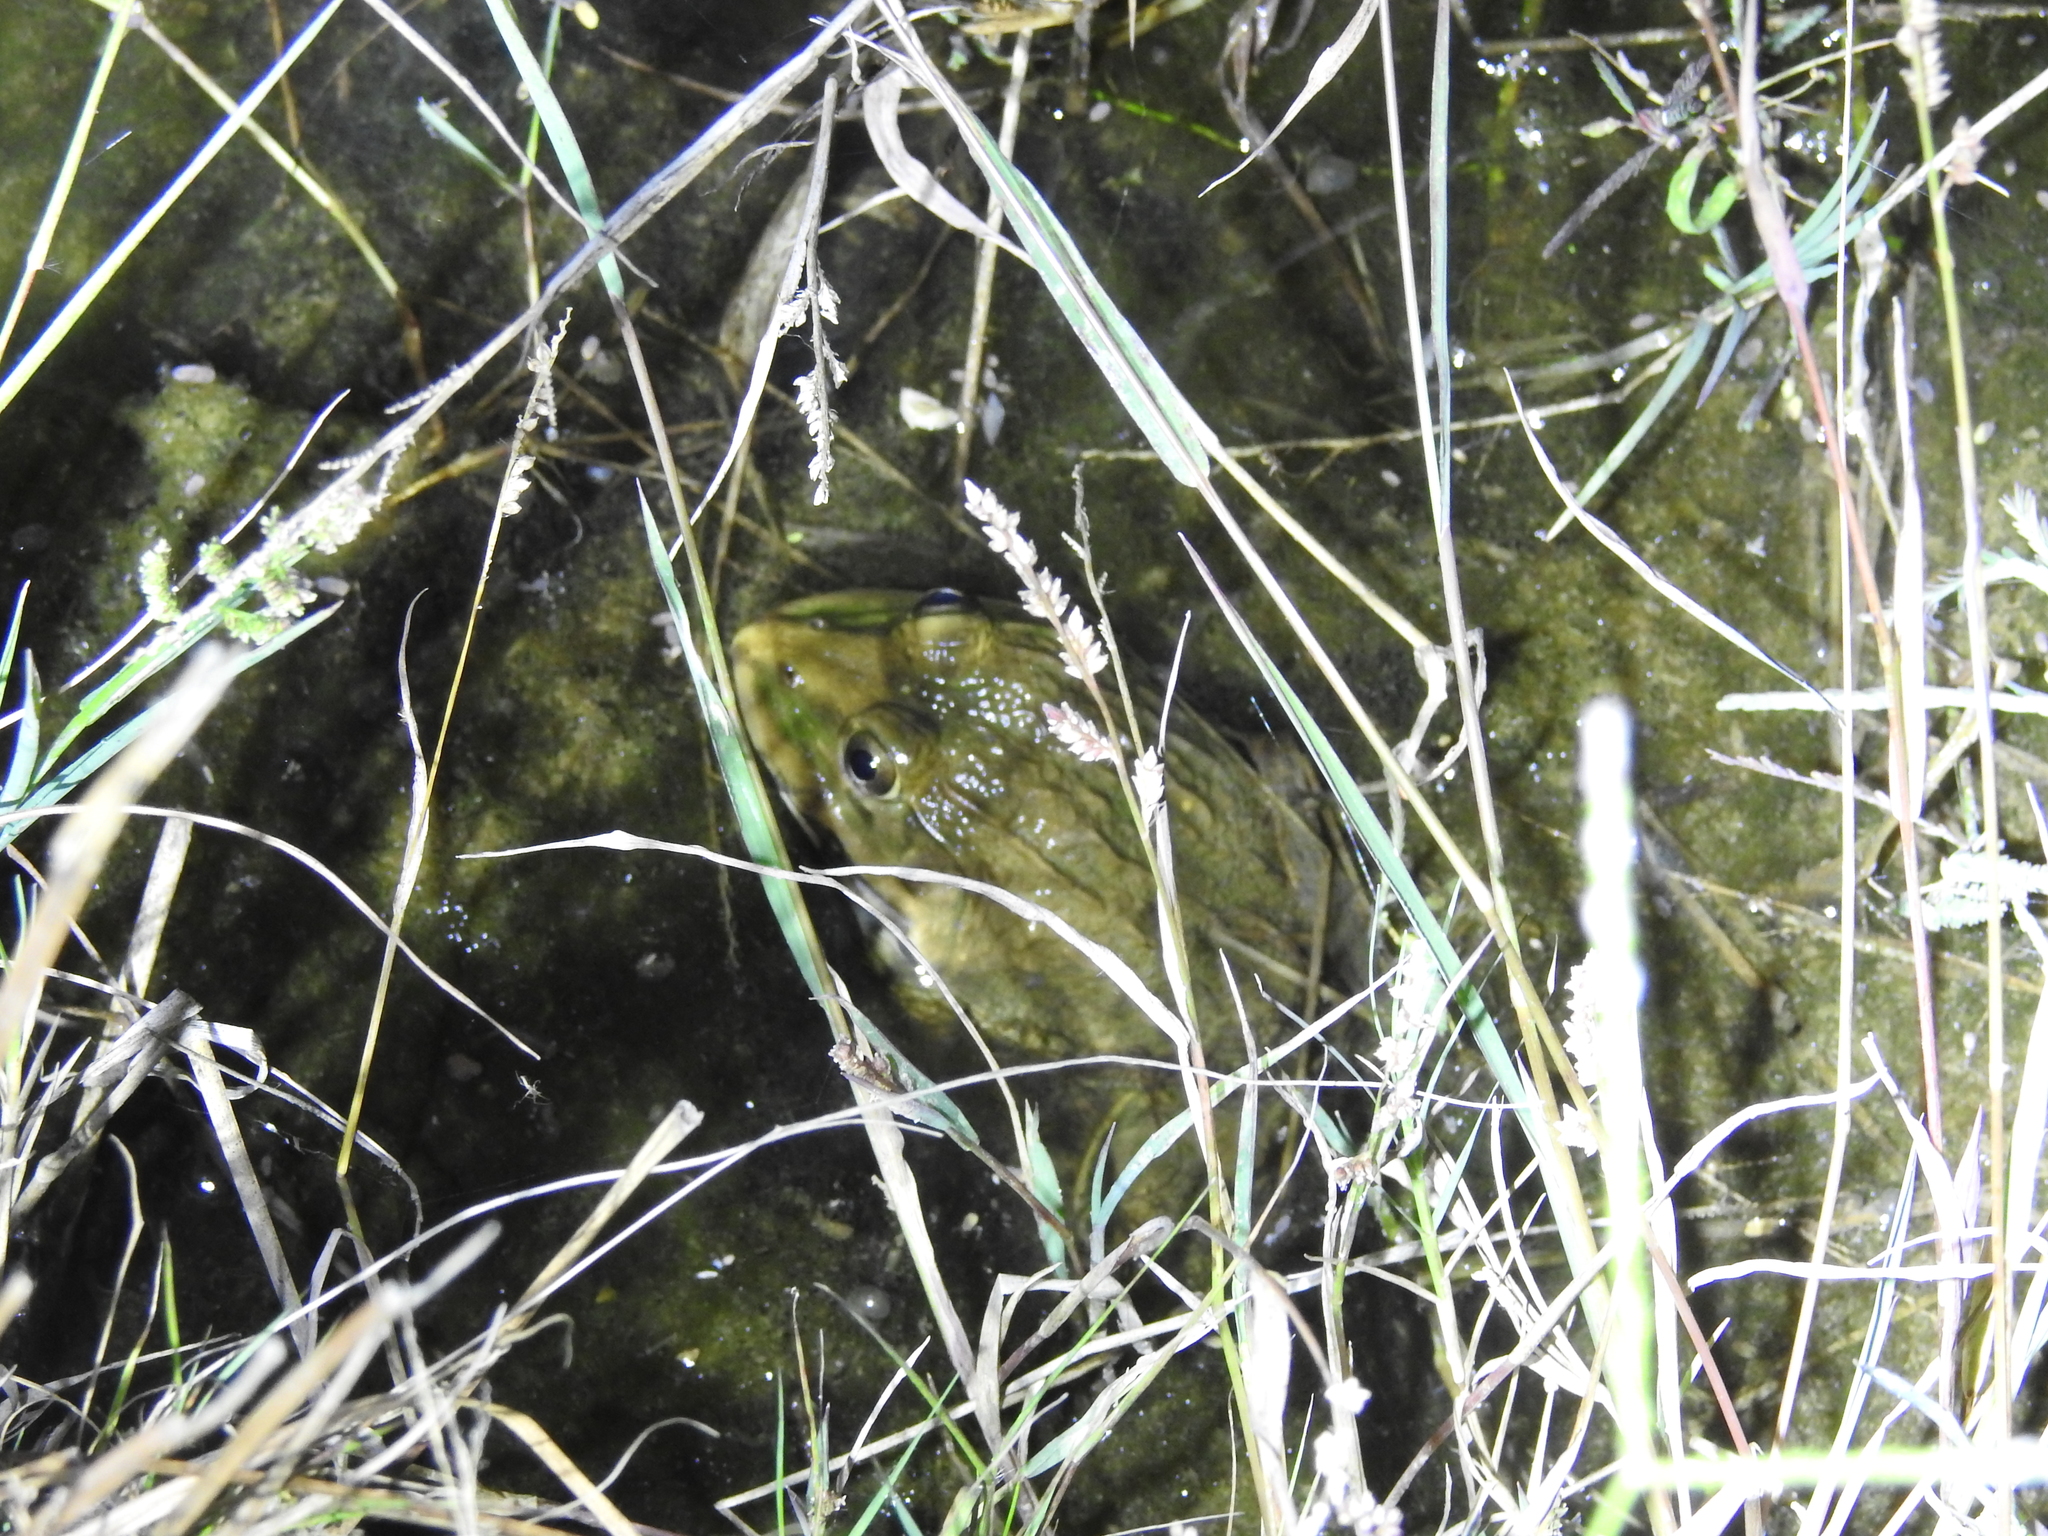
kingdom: Animalia
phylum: Chordata
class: Amphibia
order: Anura
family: Dicroglossidae
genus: Hoplobatrachus
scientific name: Hoplobatrachus tigerinus
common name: Indian bullfrog
